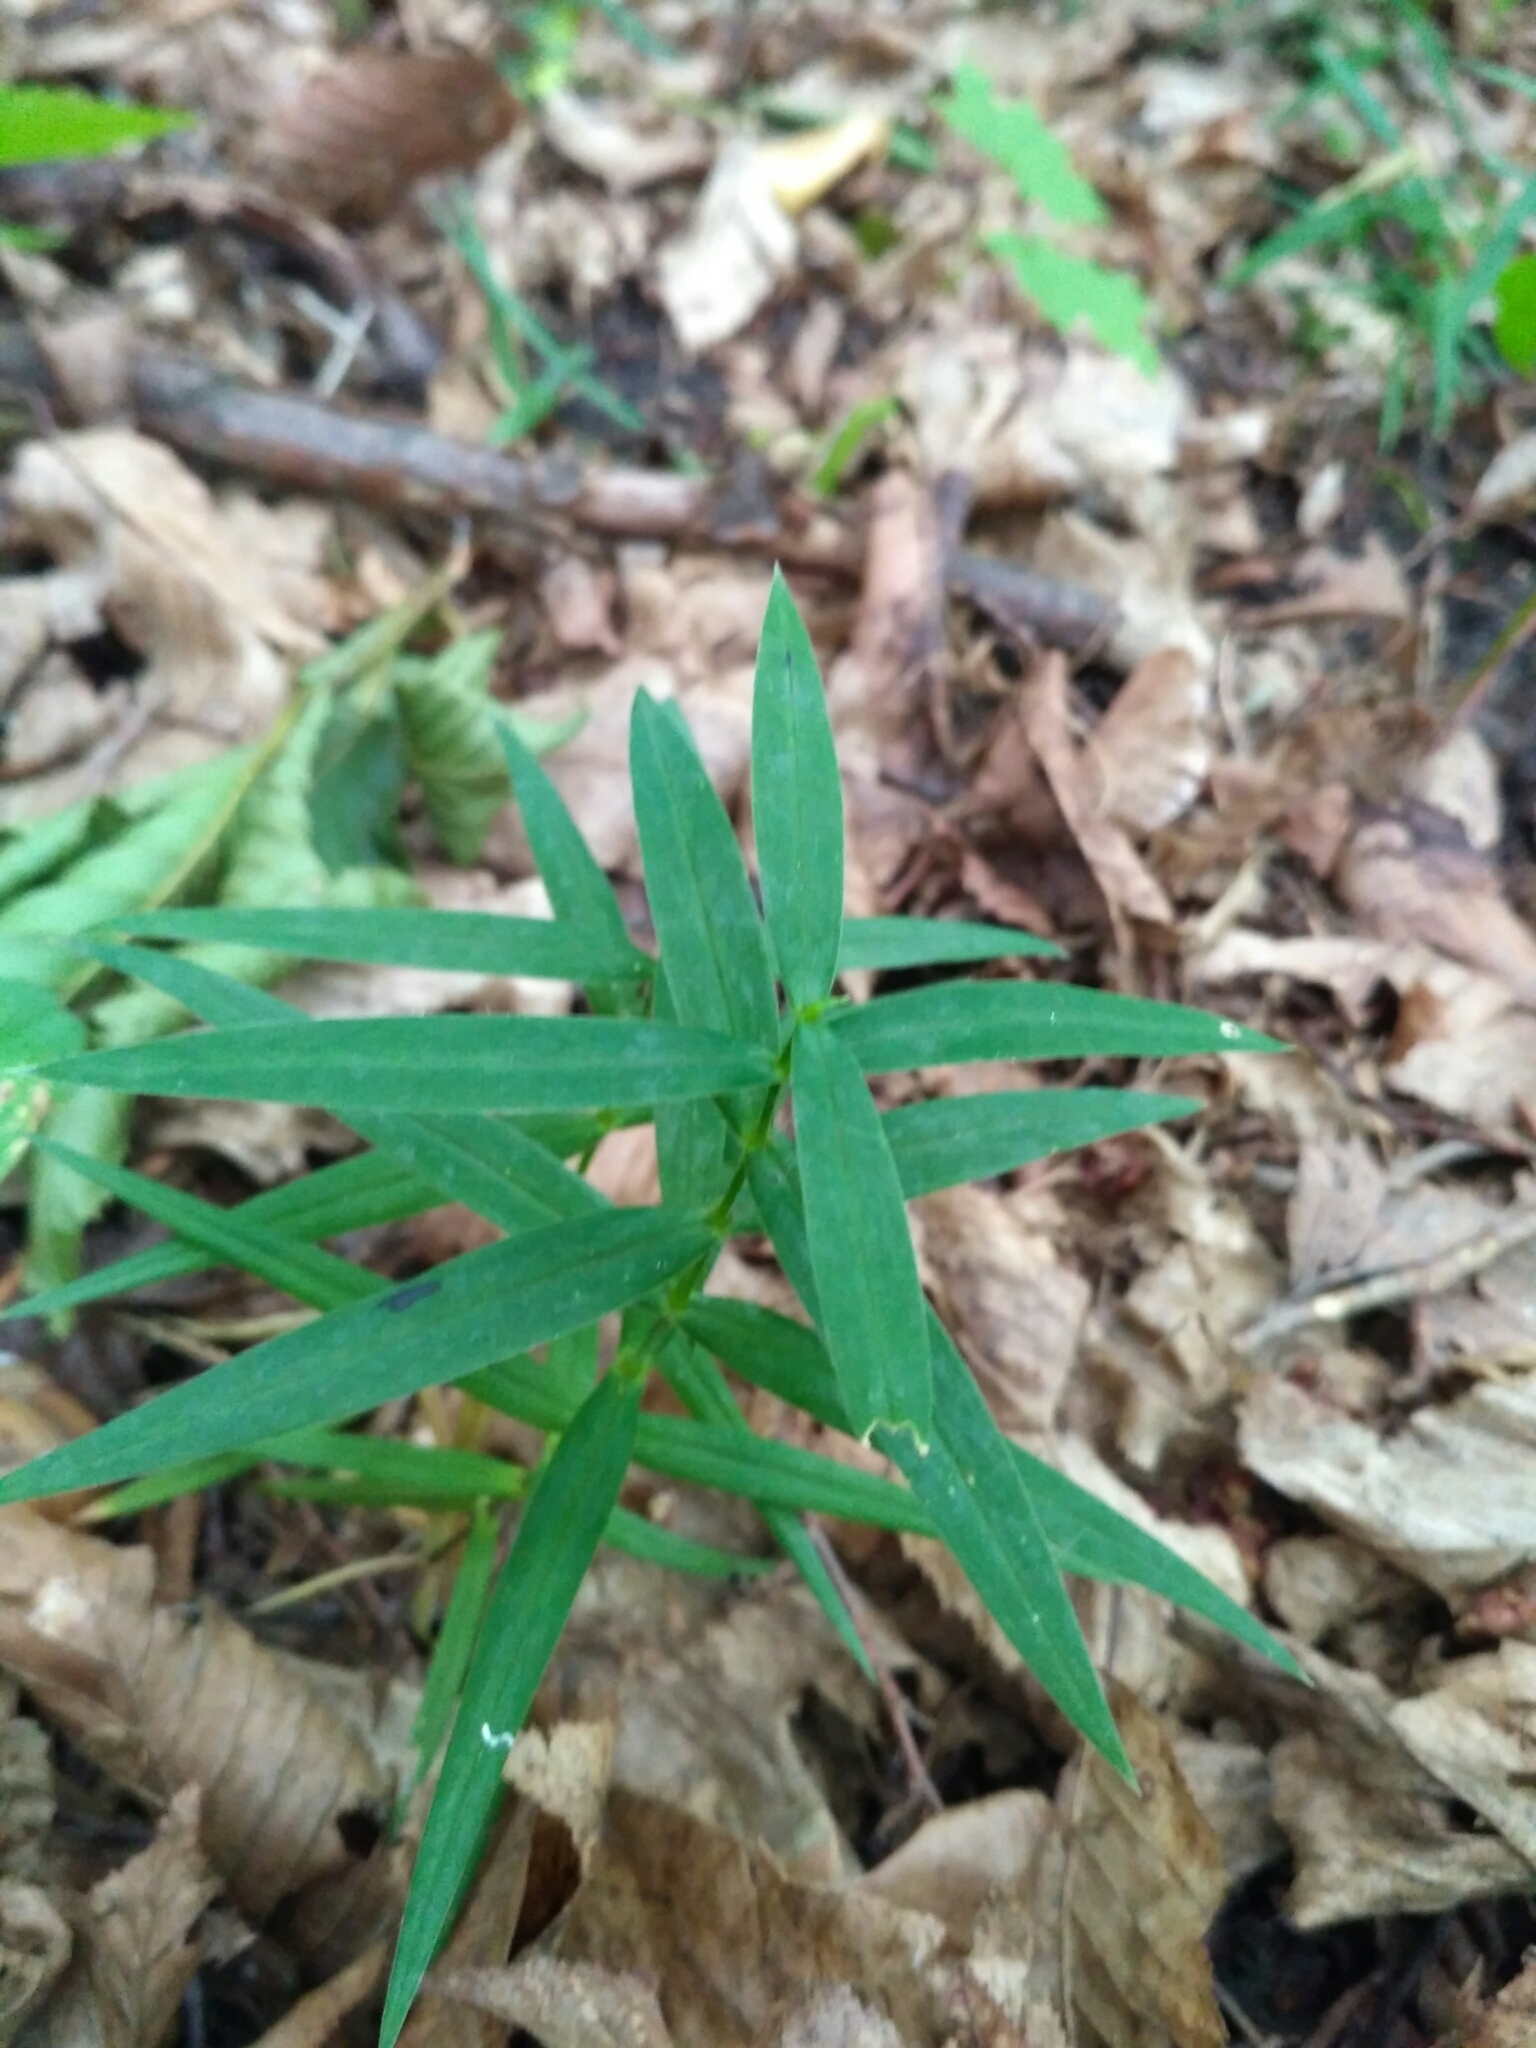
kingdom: Plantae
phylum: Tracheophyta
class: Magnoliopsida
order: Caryophyllales
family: Caryophyllaceae
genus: Rabelera
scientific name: Rabelera holostea
